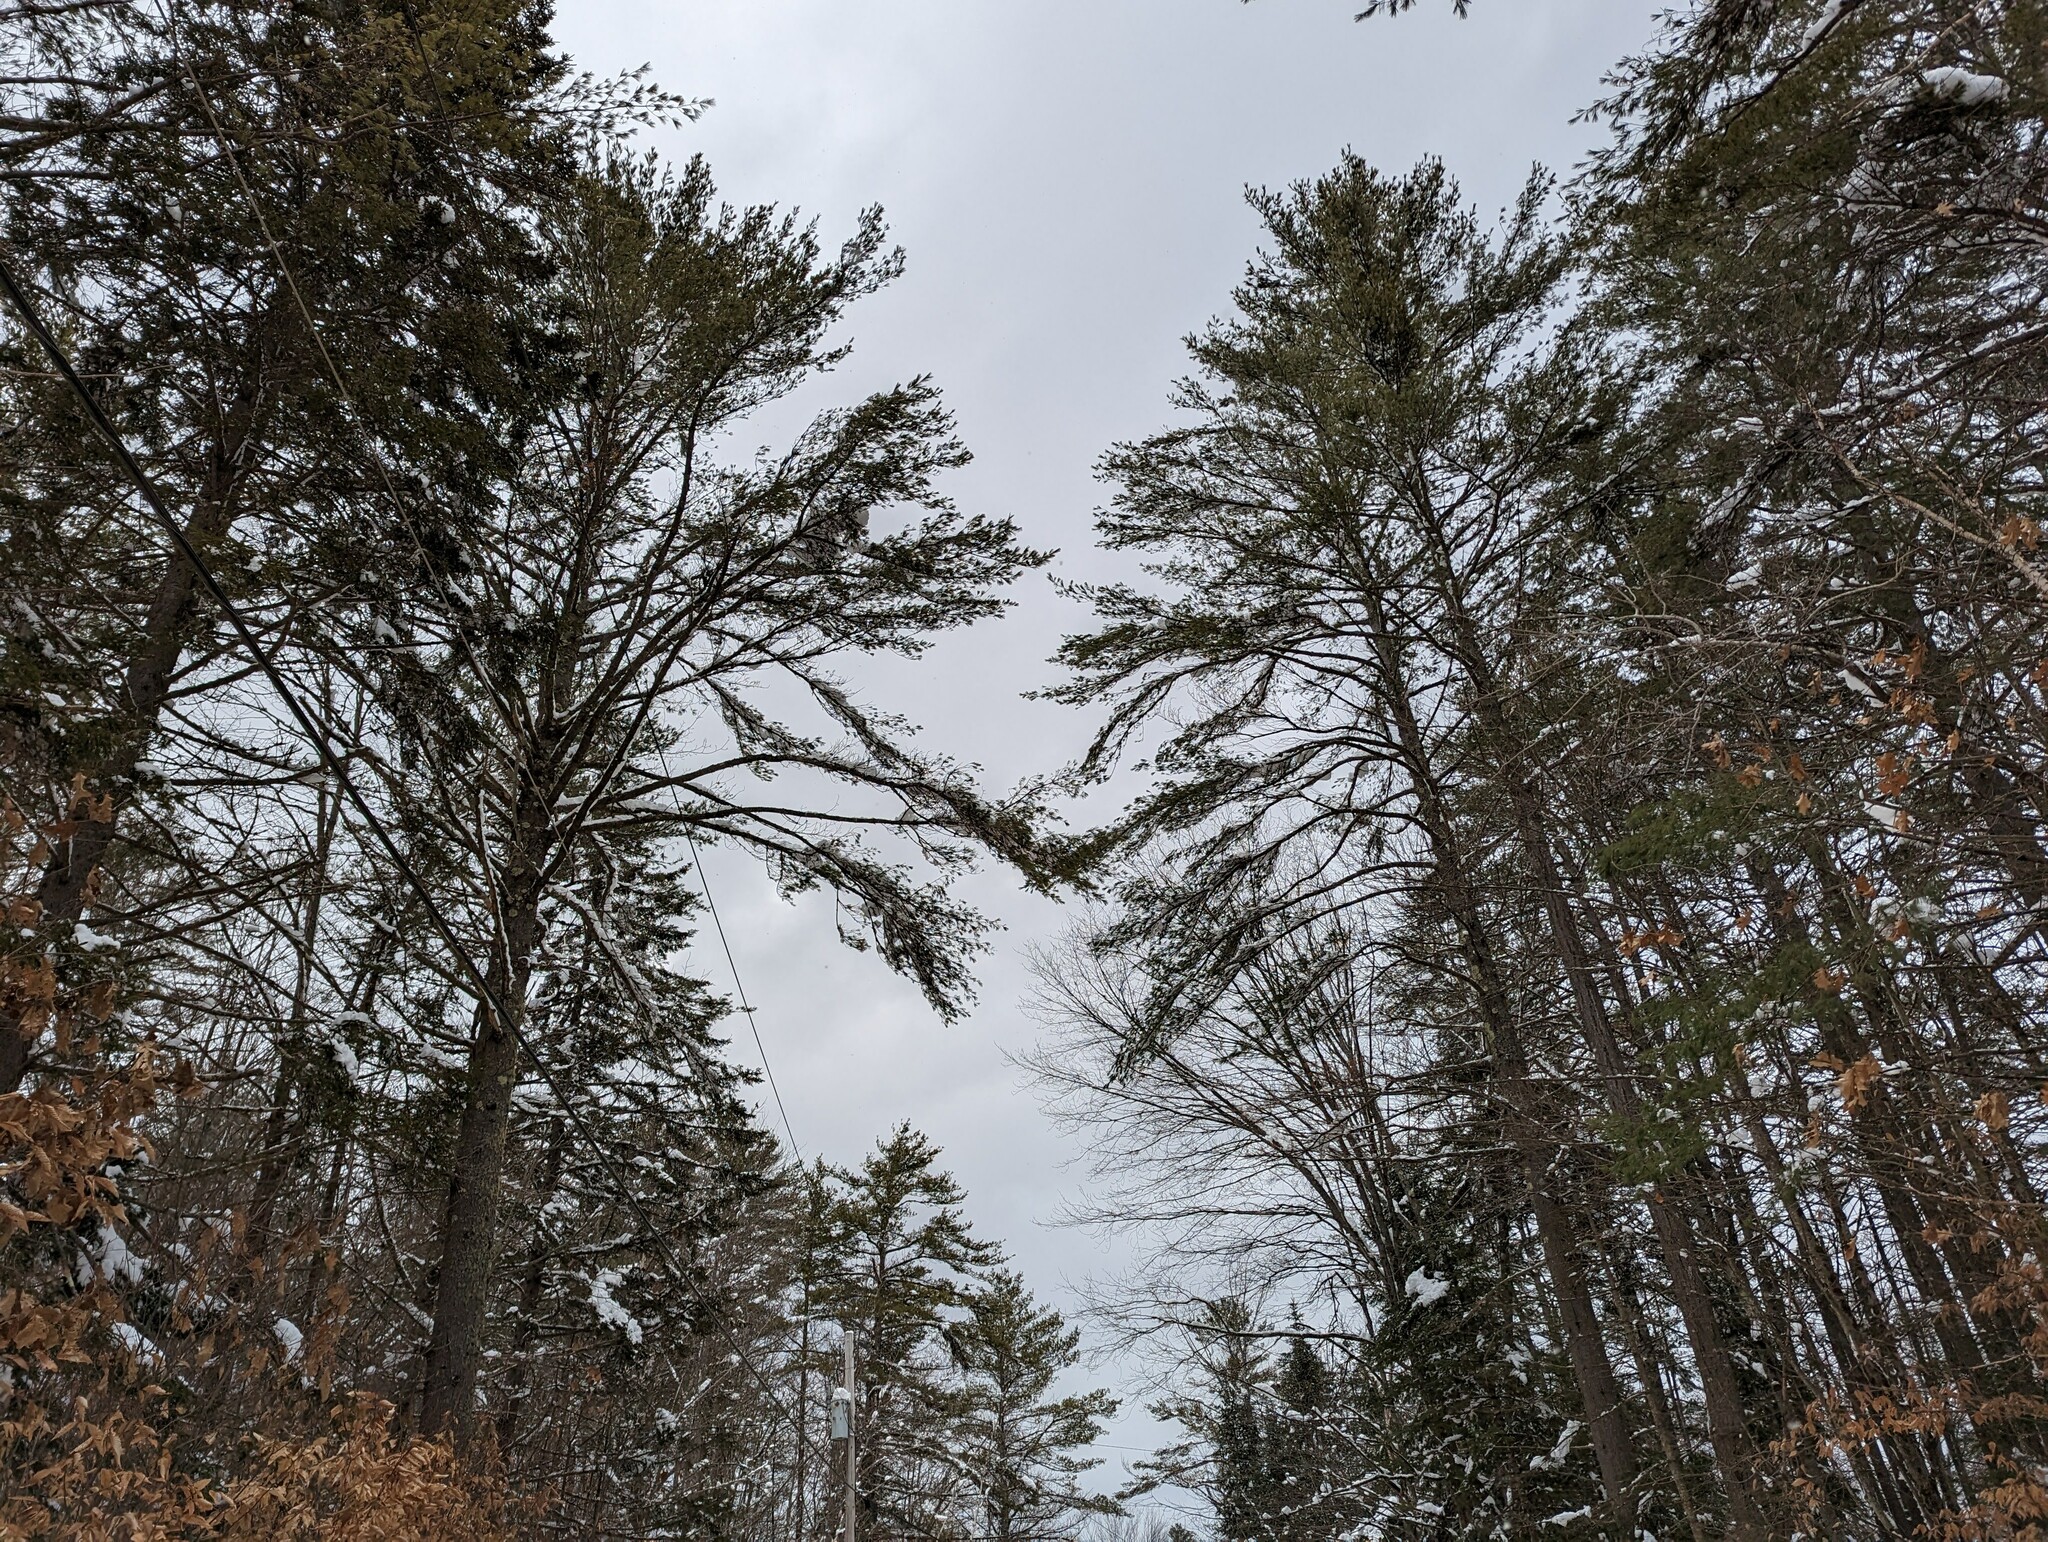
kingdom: Plantae
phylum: Tracheophyta
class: Pinopsida
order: Pinales
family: Pinaceae
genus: Pinus
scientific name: Pinus strobus
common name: Weymouth pine
